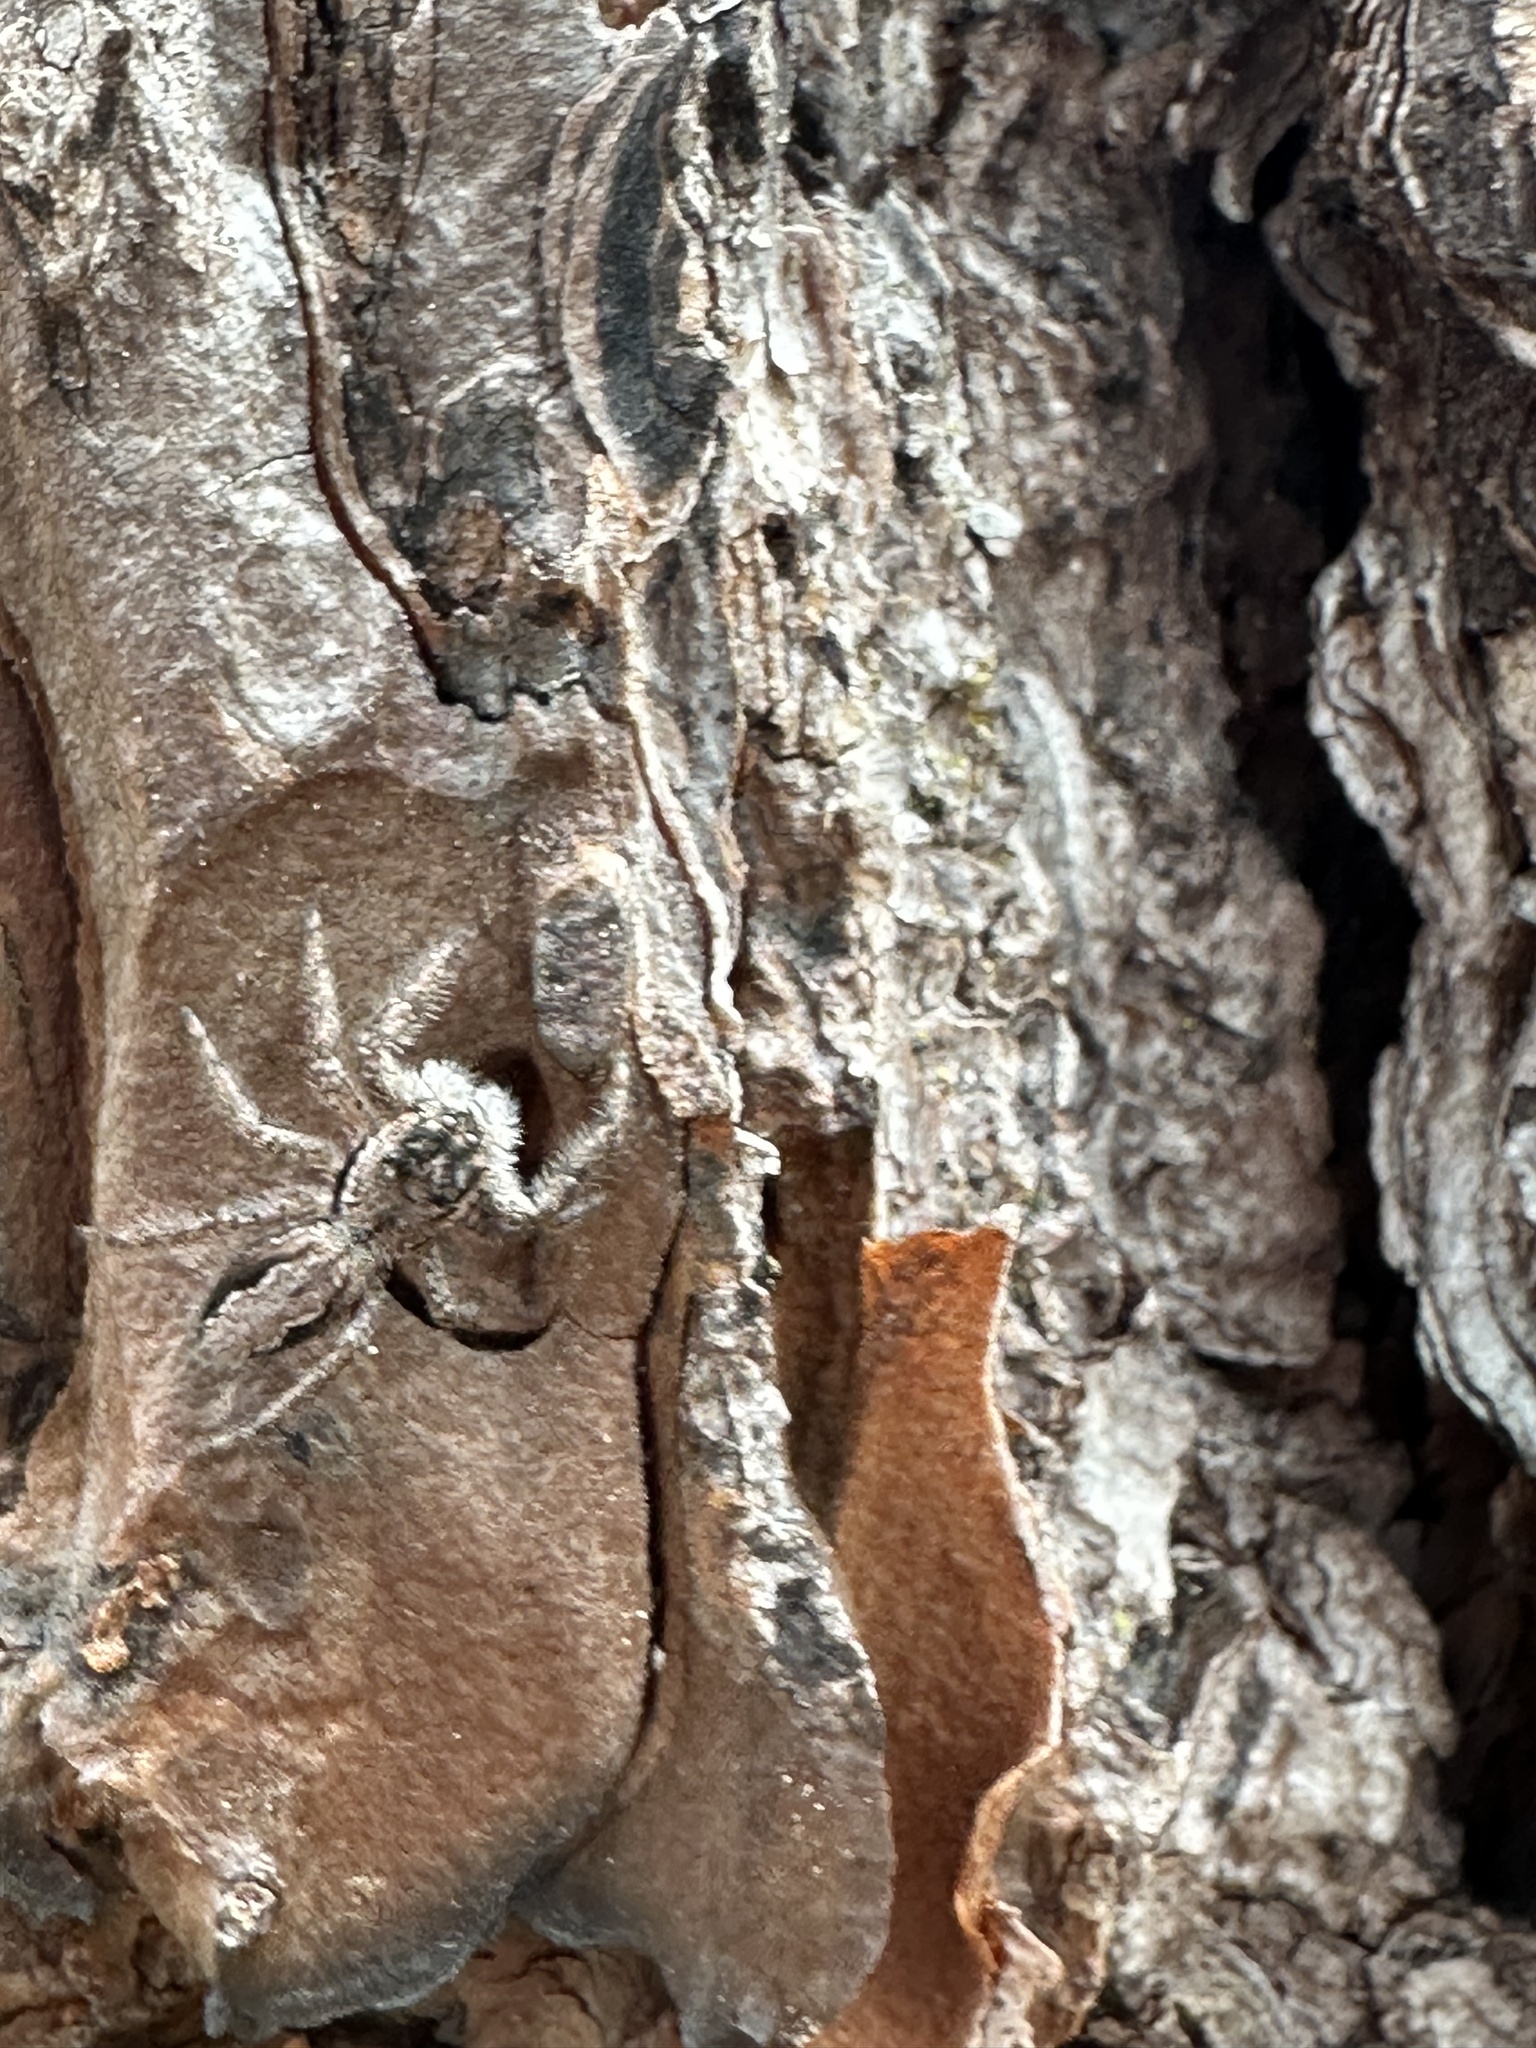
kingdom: Animalia
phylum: Arthropoda
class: Arachnida
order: Araneae
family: Salticidae
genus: Platycryptus
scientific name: Platycryptus undatus
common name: Tan jumping spider
